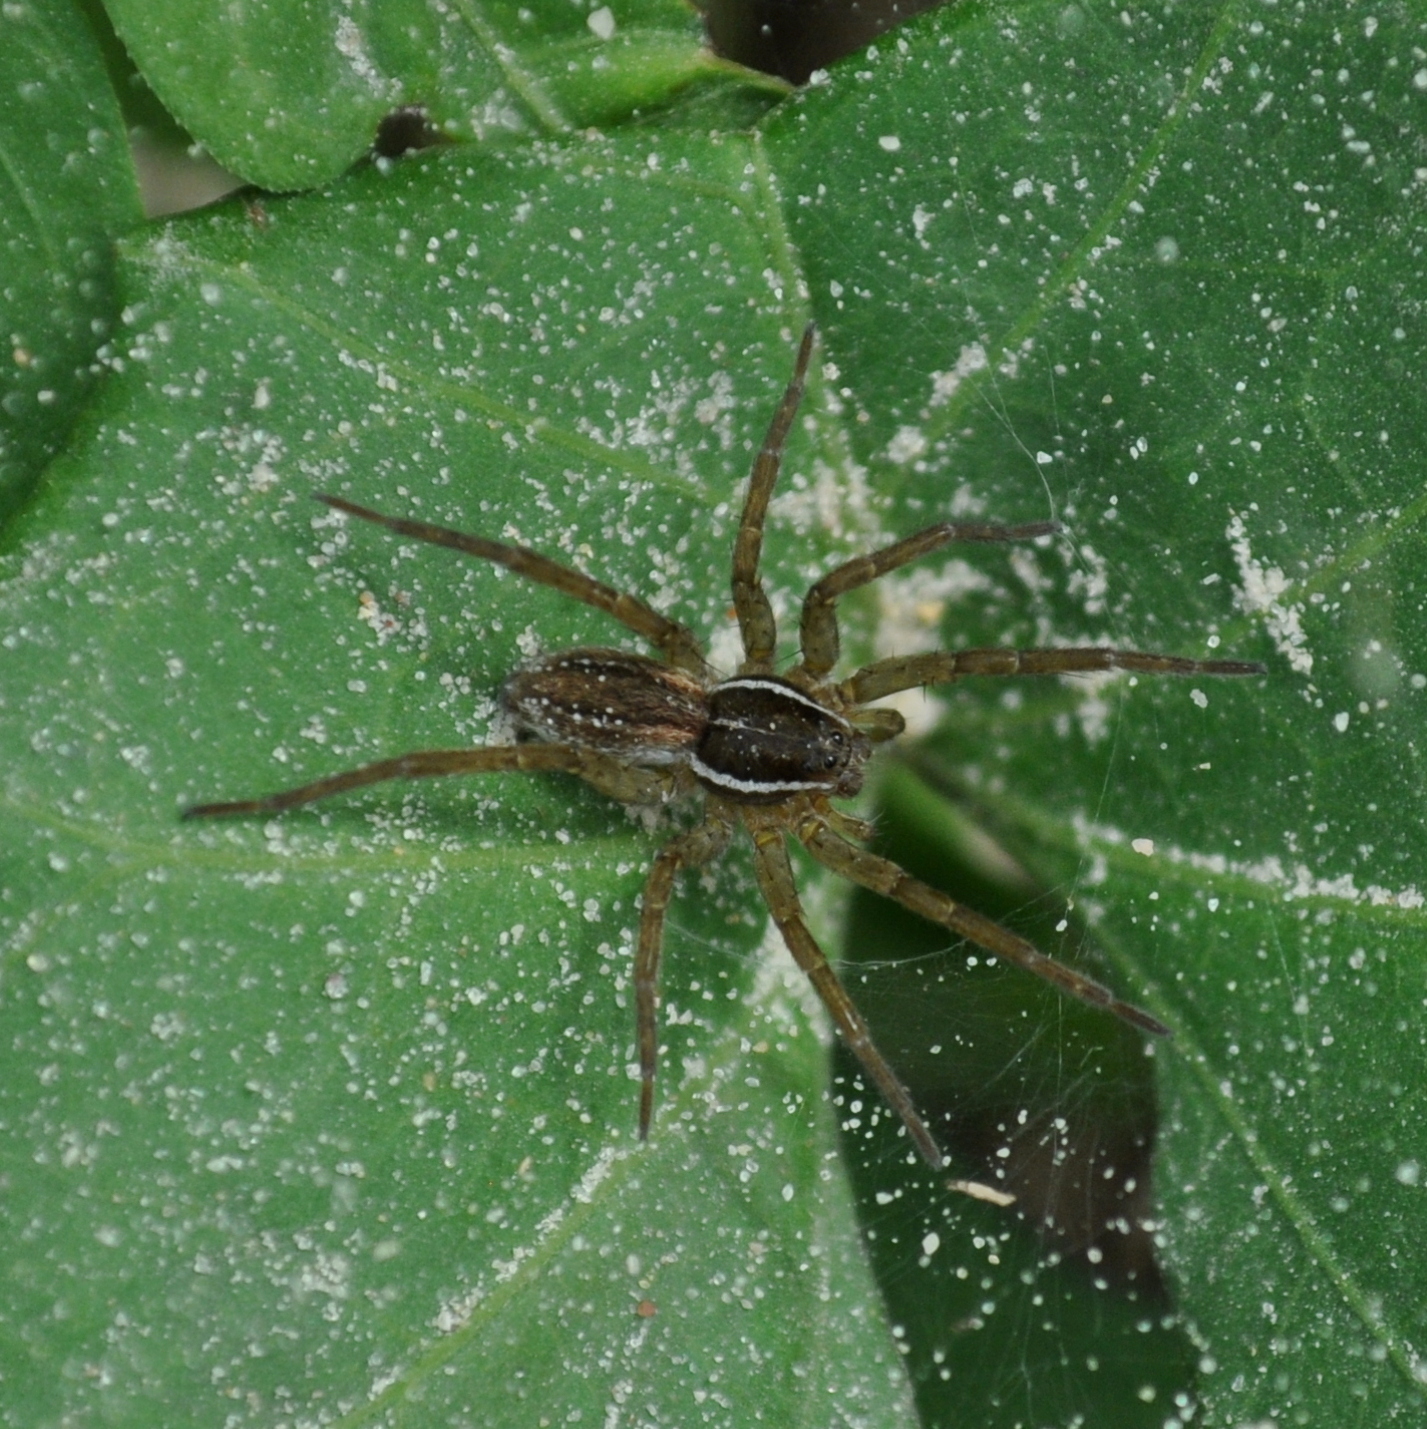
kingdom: Animalia
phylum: Arthropoda
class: Arachnida
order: Araneae
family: Lycosidae
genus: Diapontia
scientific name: Diapontia uruguayensis
